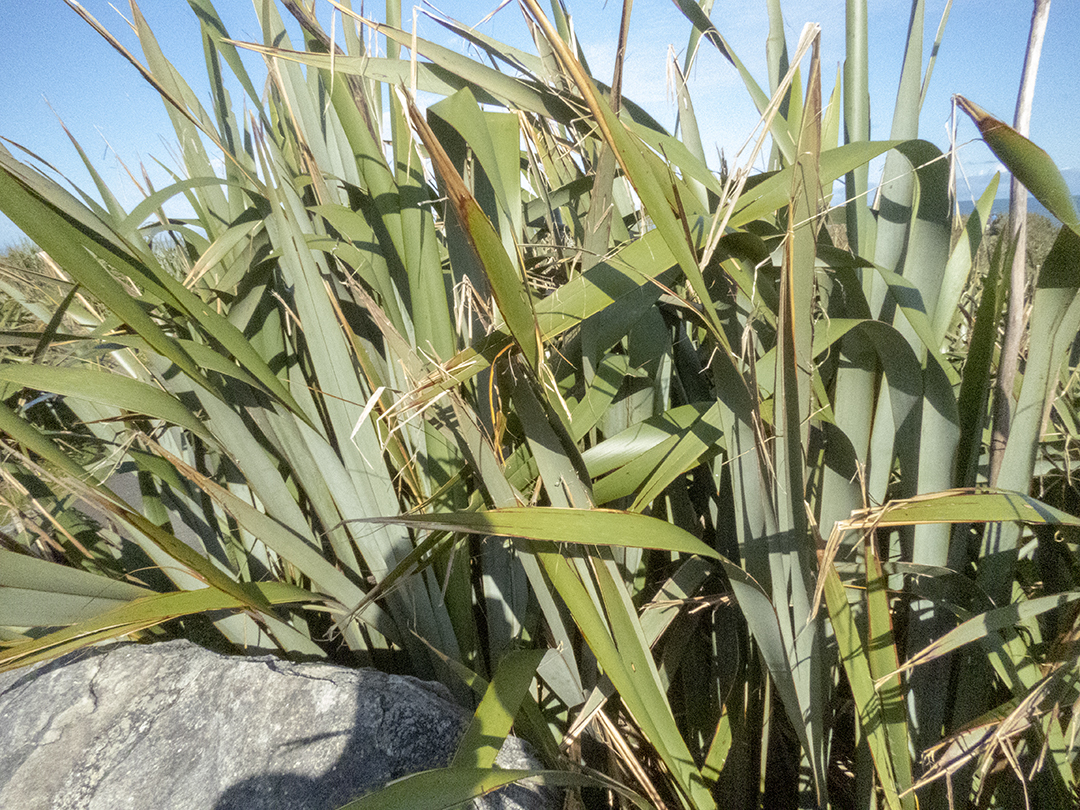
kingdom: Plantae
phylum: Tracheophyta
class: Liliopsida
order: Asparagales
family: Asphodelaceae
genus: Phormium
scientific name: Phormium tenax
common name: New zealand flax
